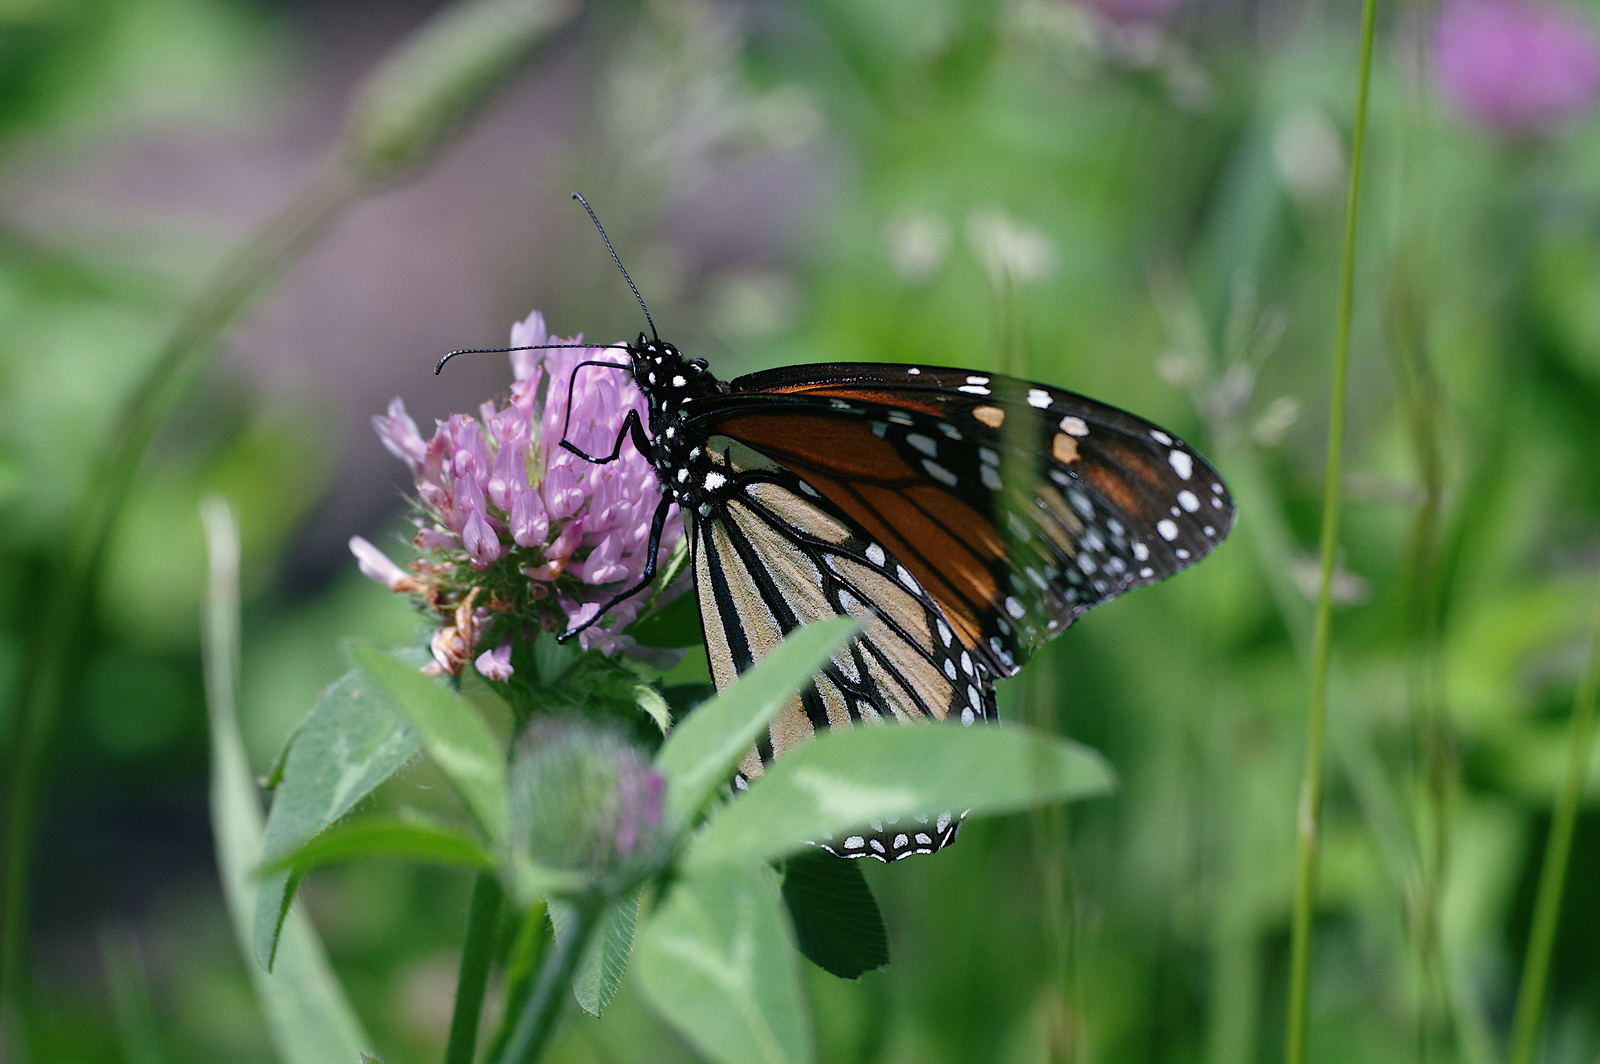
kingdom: Animalia
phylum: Arthropoda
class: Insecta
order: Lepidoptera
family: Nymphalidae
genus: Danaus
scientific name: Danaus plexippus
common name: Monarch
